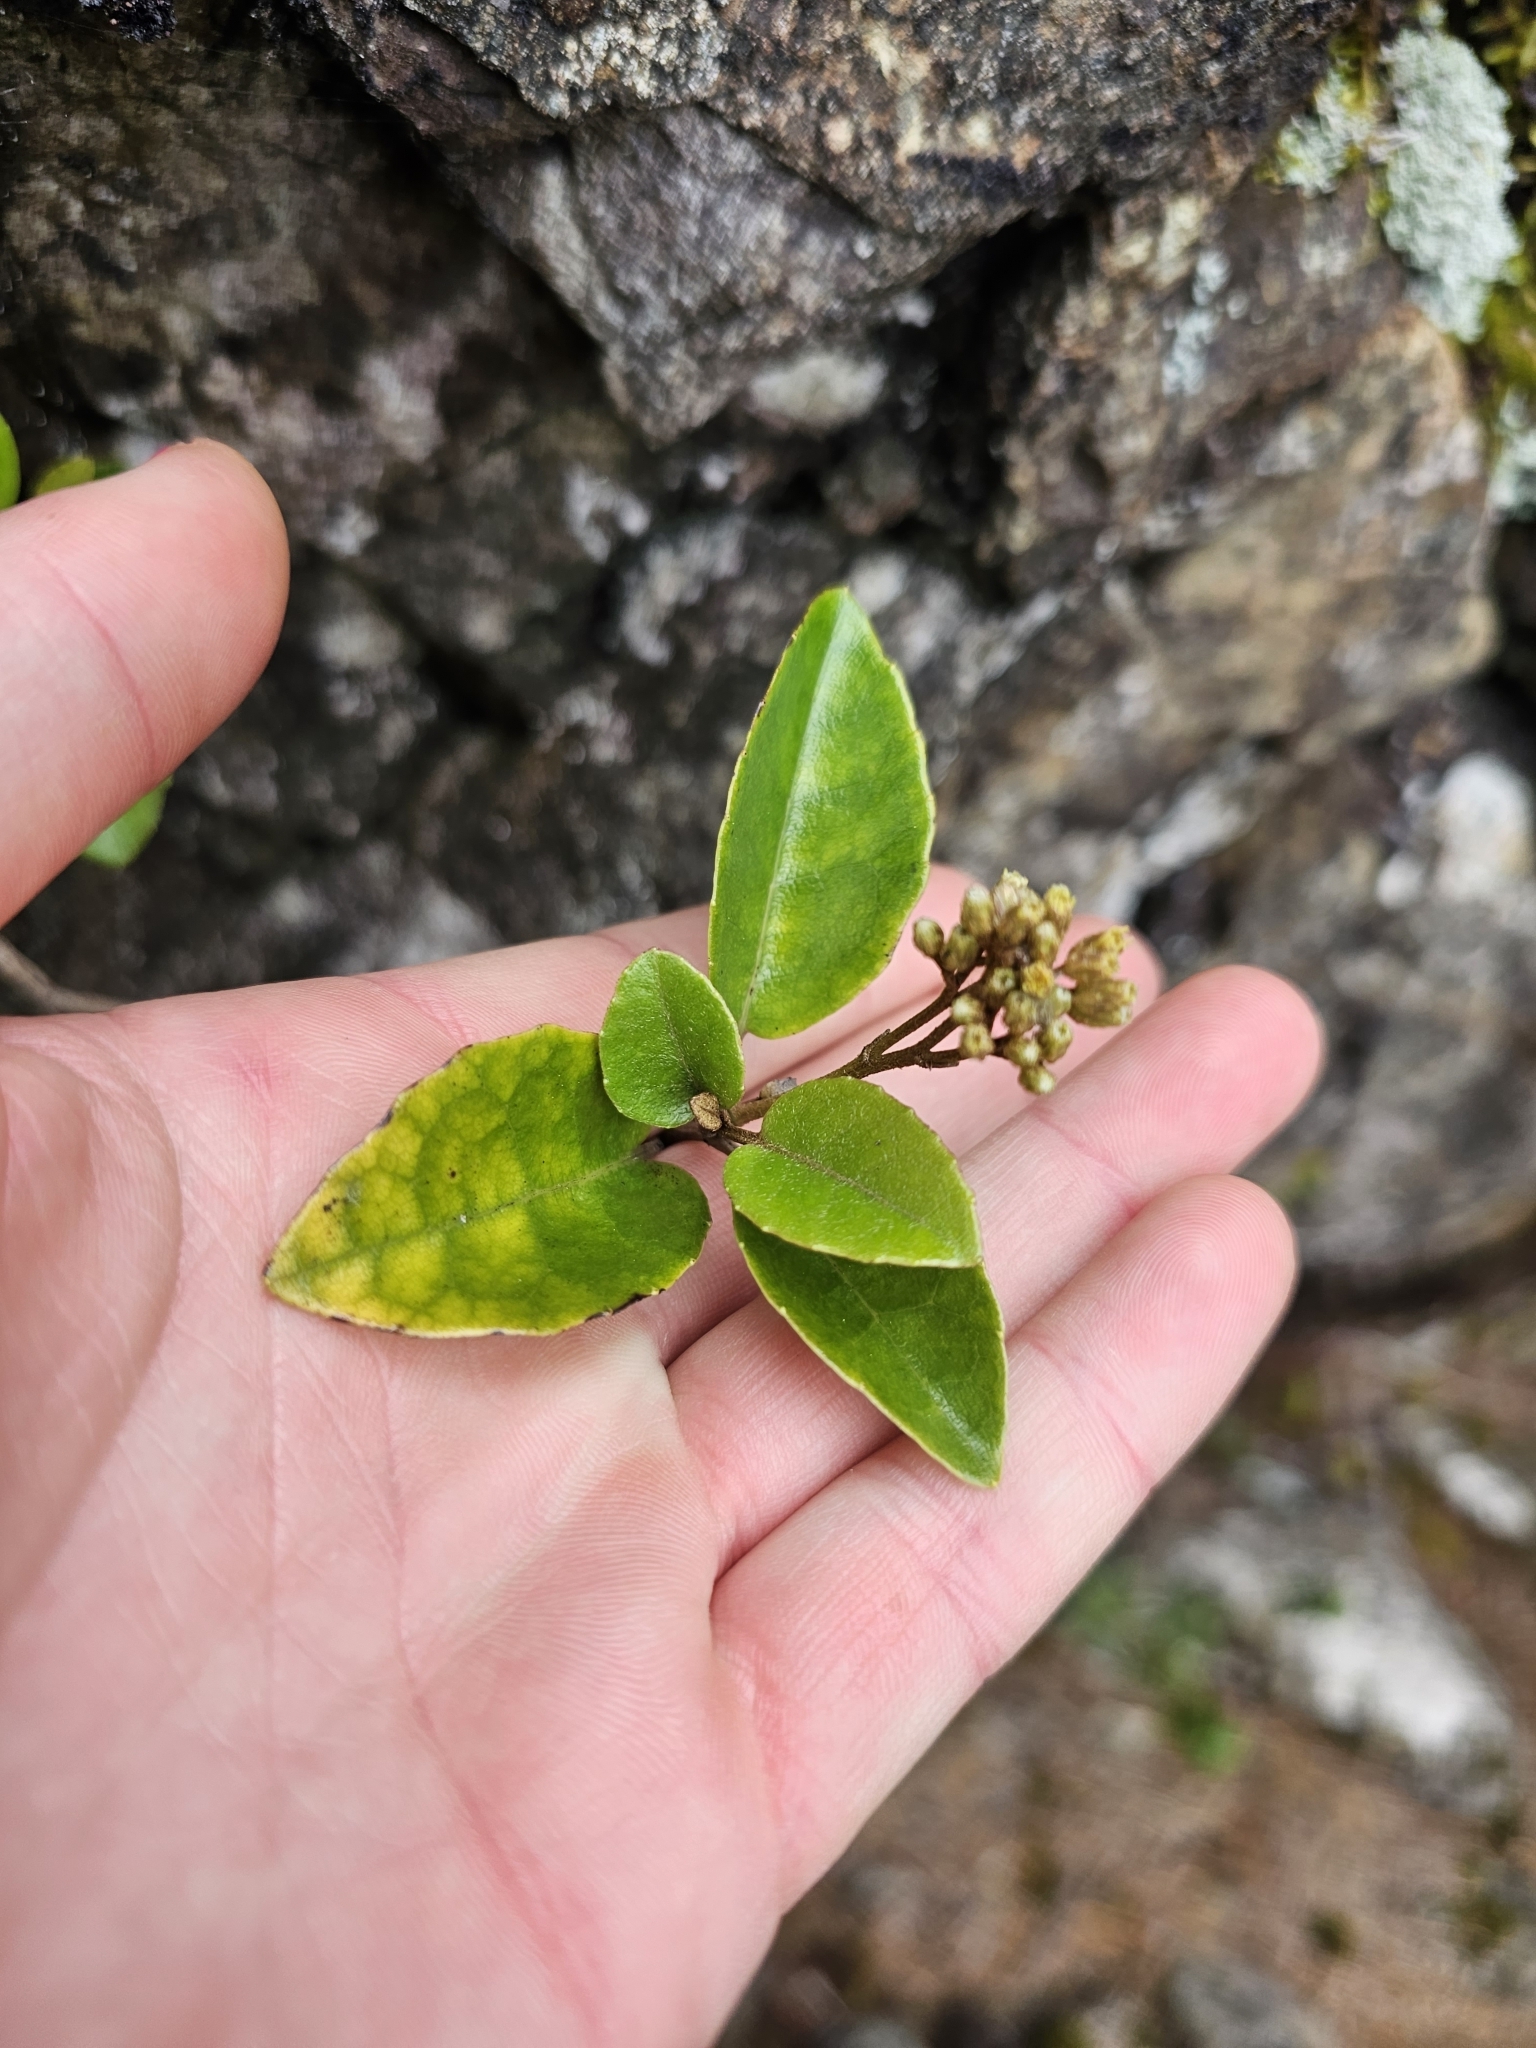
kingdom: Plantae
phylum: Tracheophyta
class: Magnoliopsida
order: Asterales
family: Asteraceae
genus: Olearia
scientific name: Olearia arborescens
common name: Glossy tree daisy
